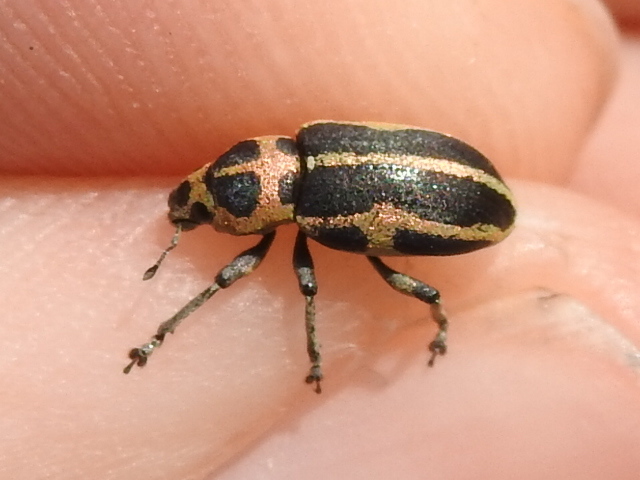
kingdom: Animalia
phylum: Arthropoda
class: Insecta
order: Coleoptera
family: Curculionidae
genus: Eudiagogus
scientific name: Eudiagogus pulcher
